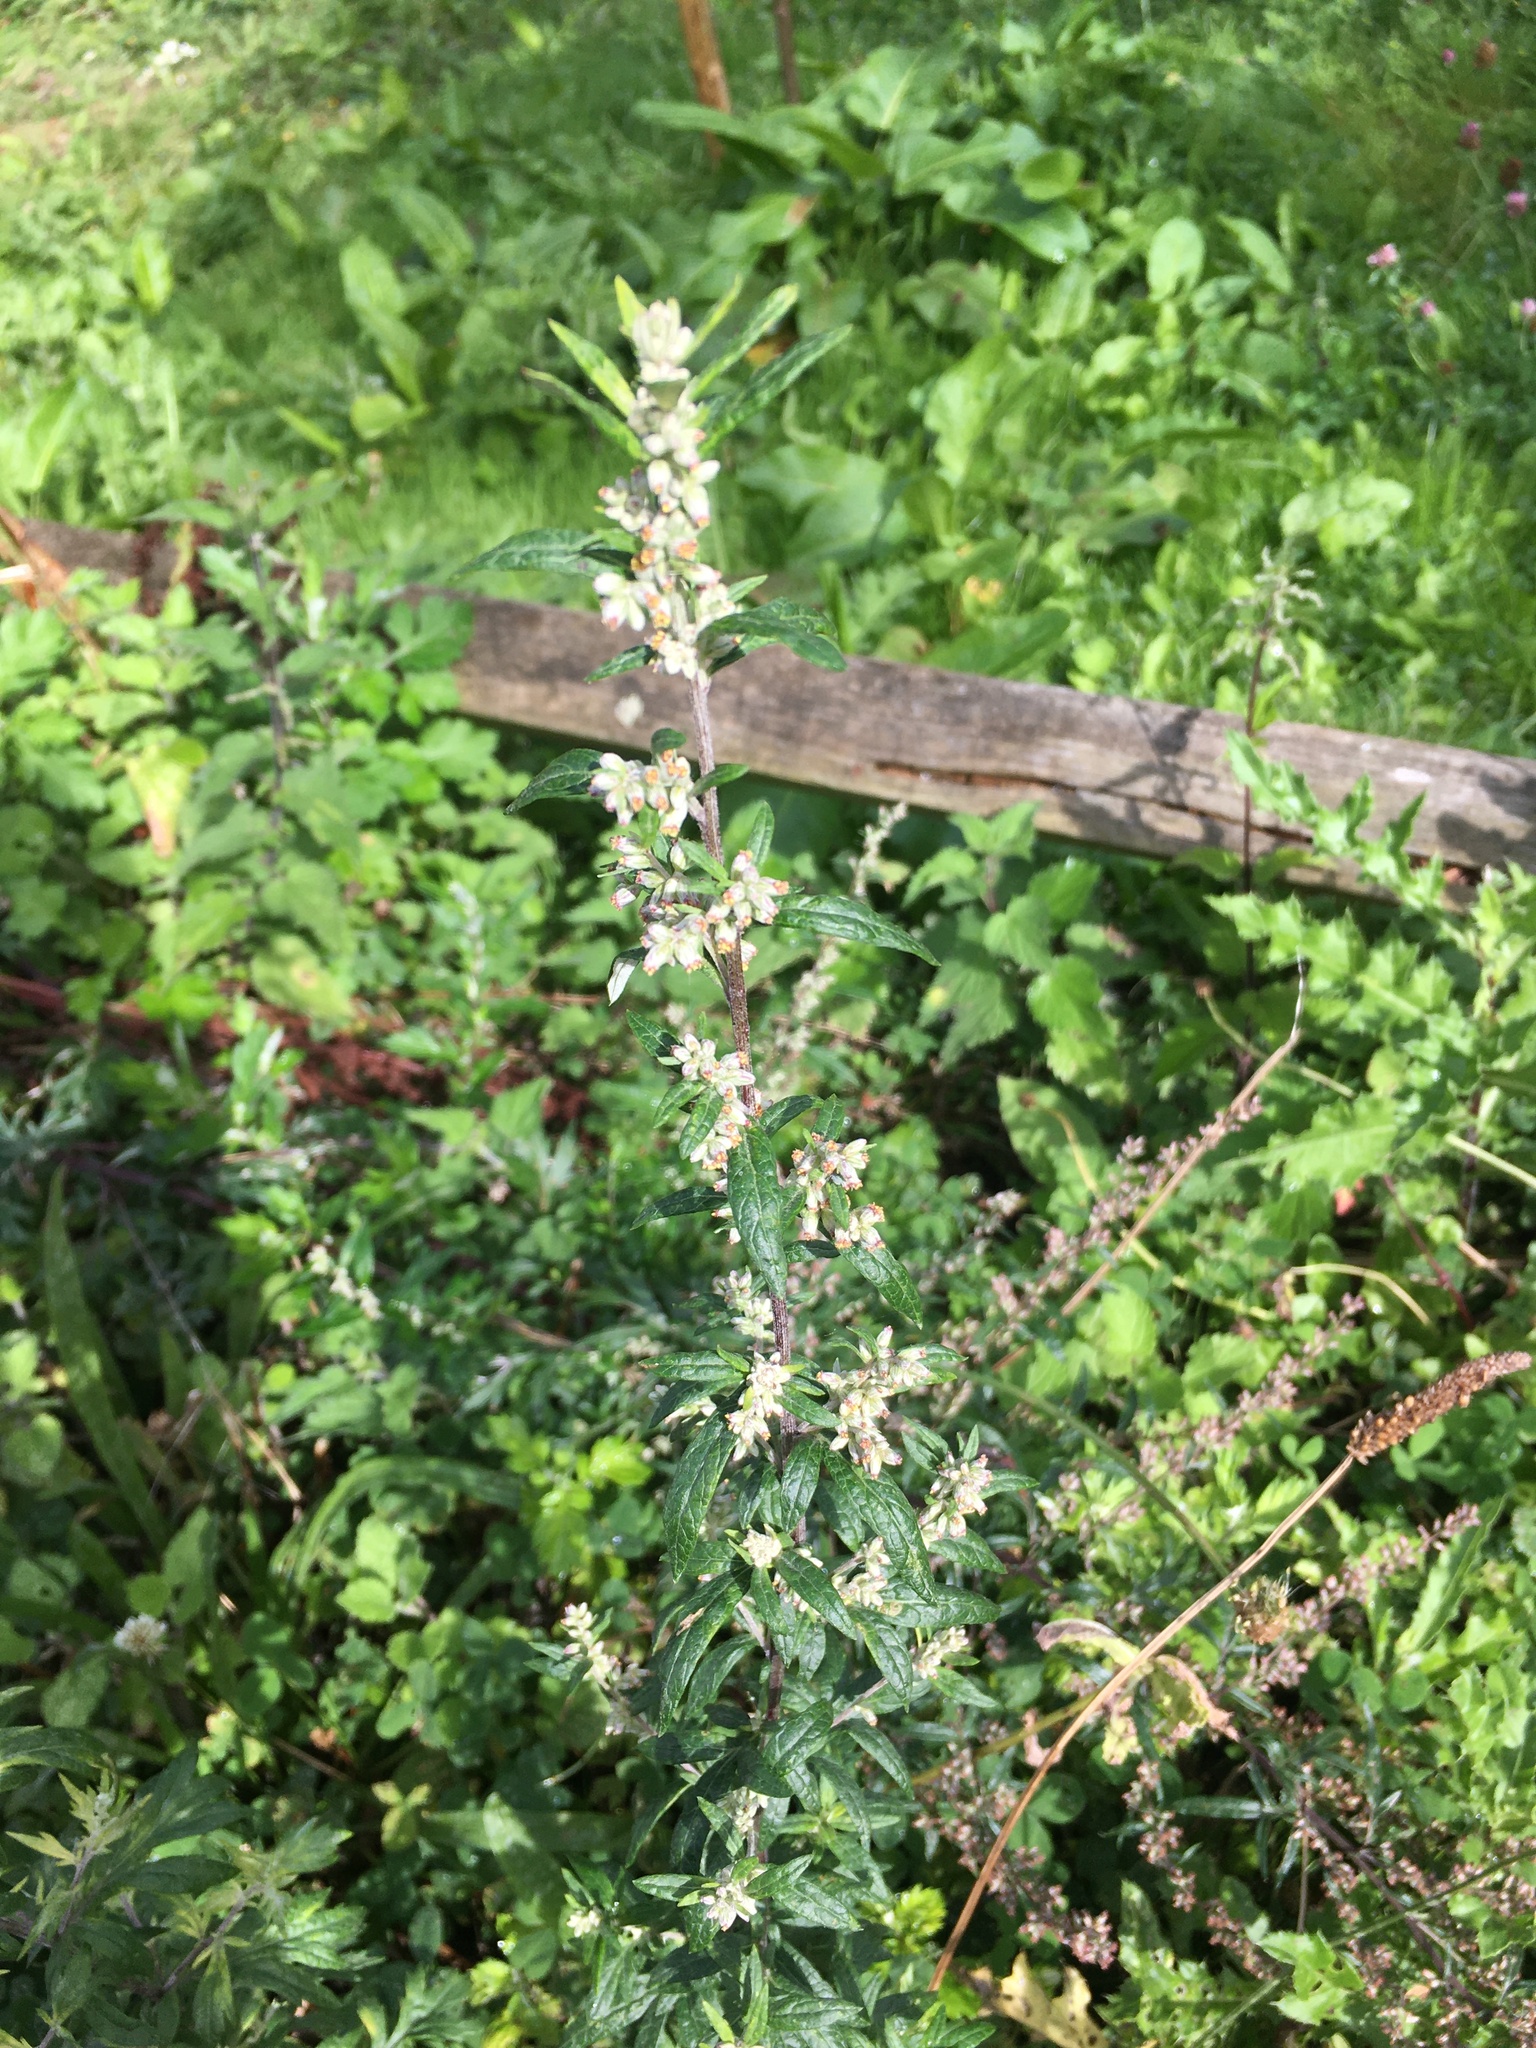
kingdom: Plantae
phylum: Tracheophyta
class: Magnoliopsida
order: Asterales
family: Asteraceae
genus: Artemisia
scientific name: Artemisia vulgaris
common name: Mugwort
